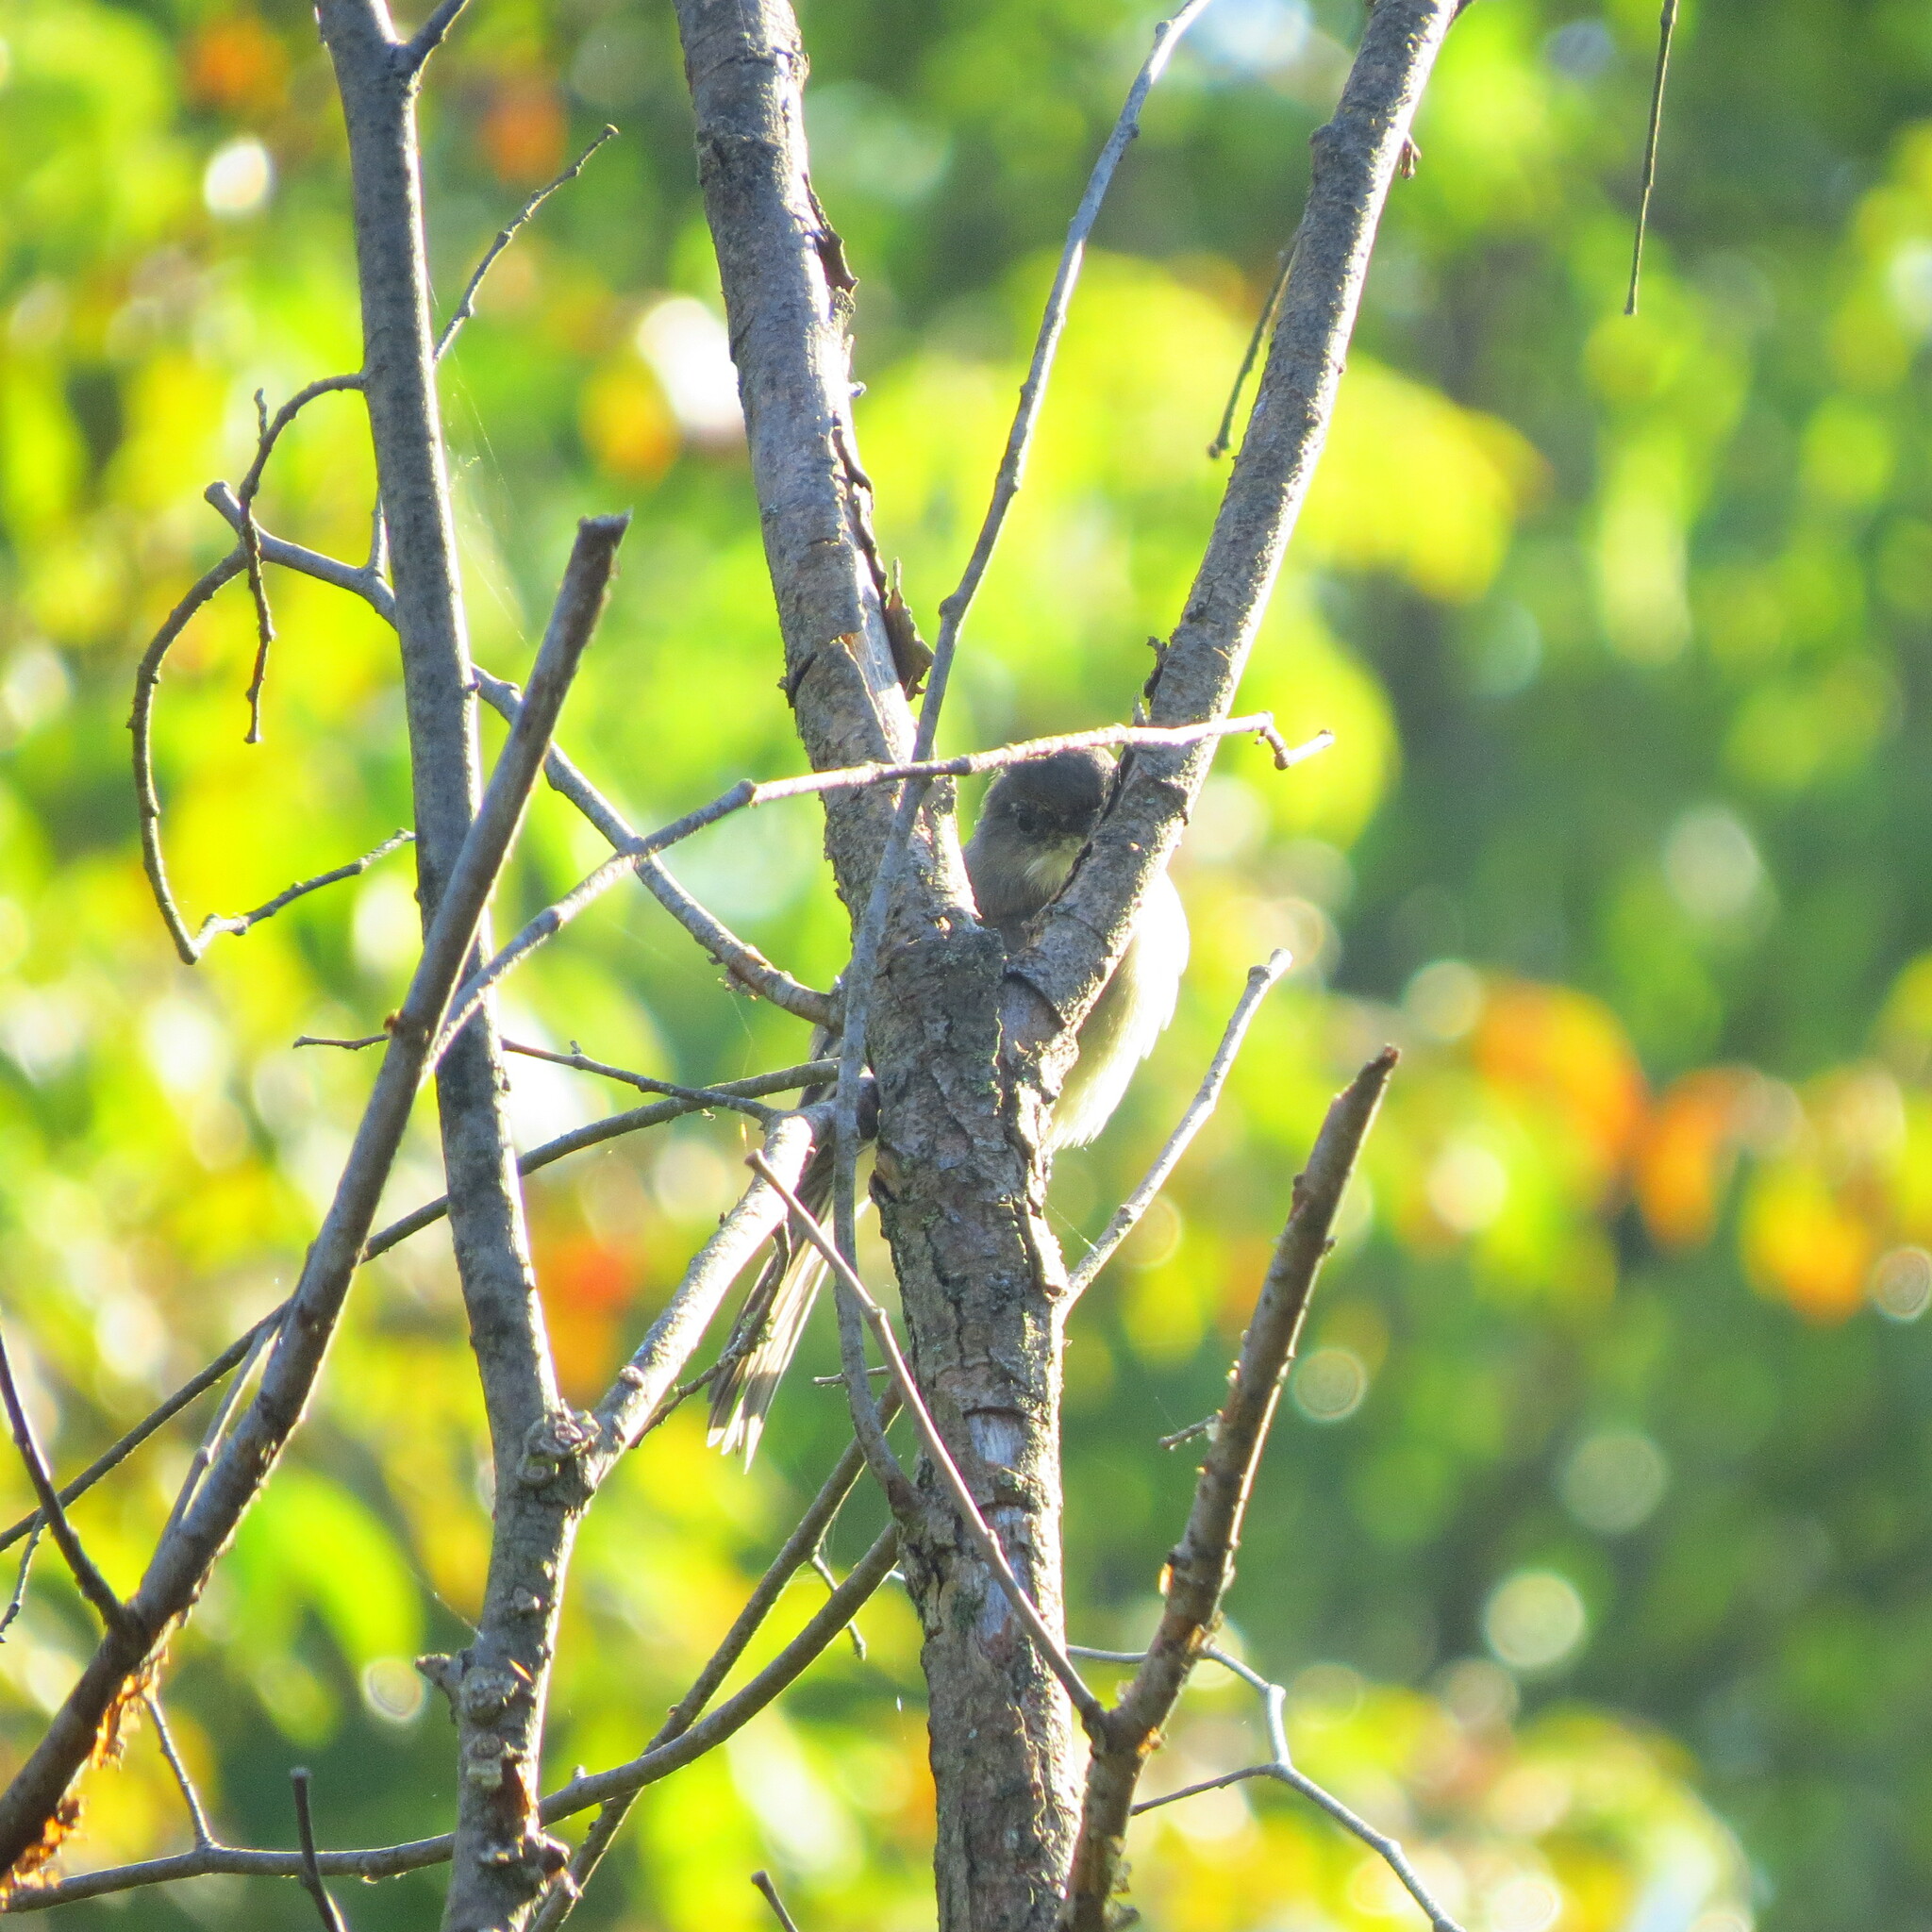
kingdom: Animalia
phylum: Chordata
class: Aves
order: Passeriformes
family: Tyrannidae
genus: Sayornis
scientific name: Sayornis phoebe
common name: Eastern phoebe
